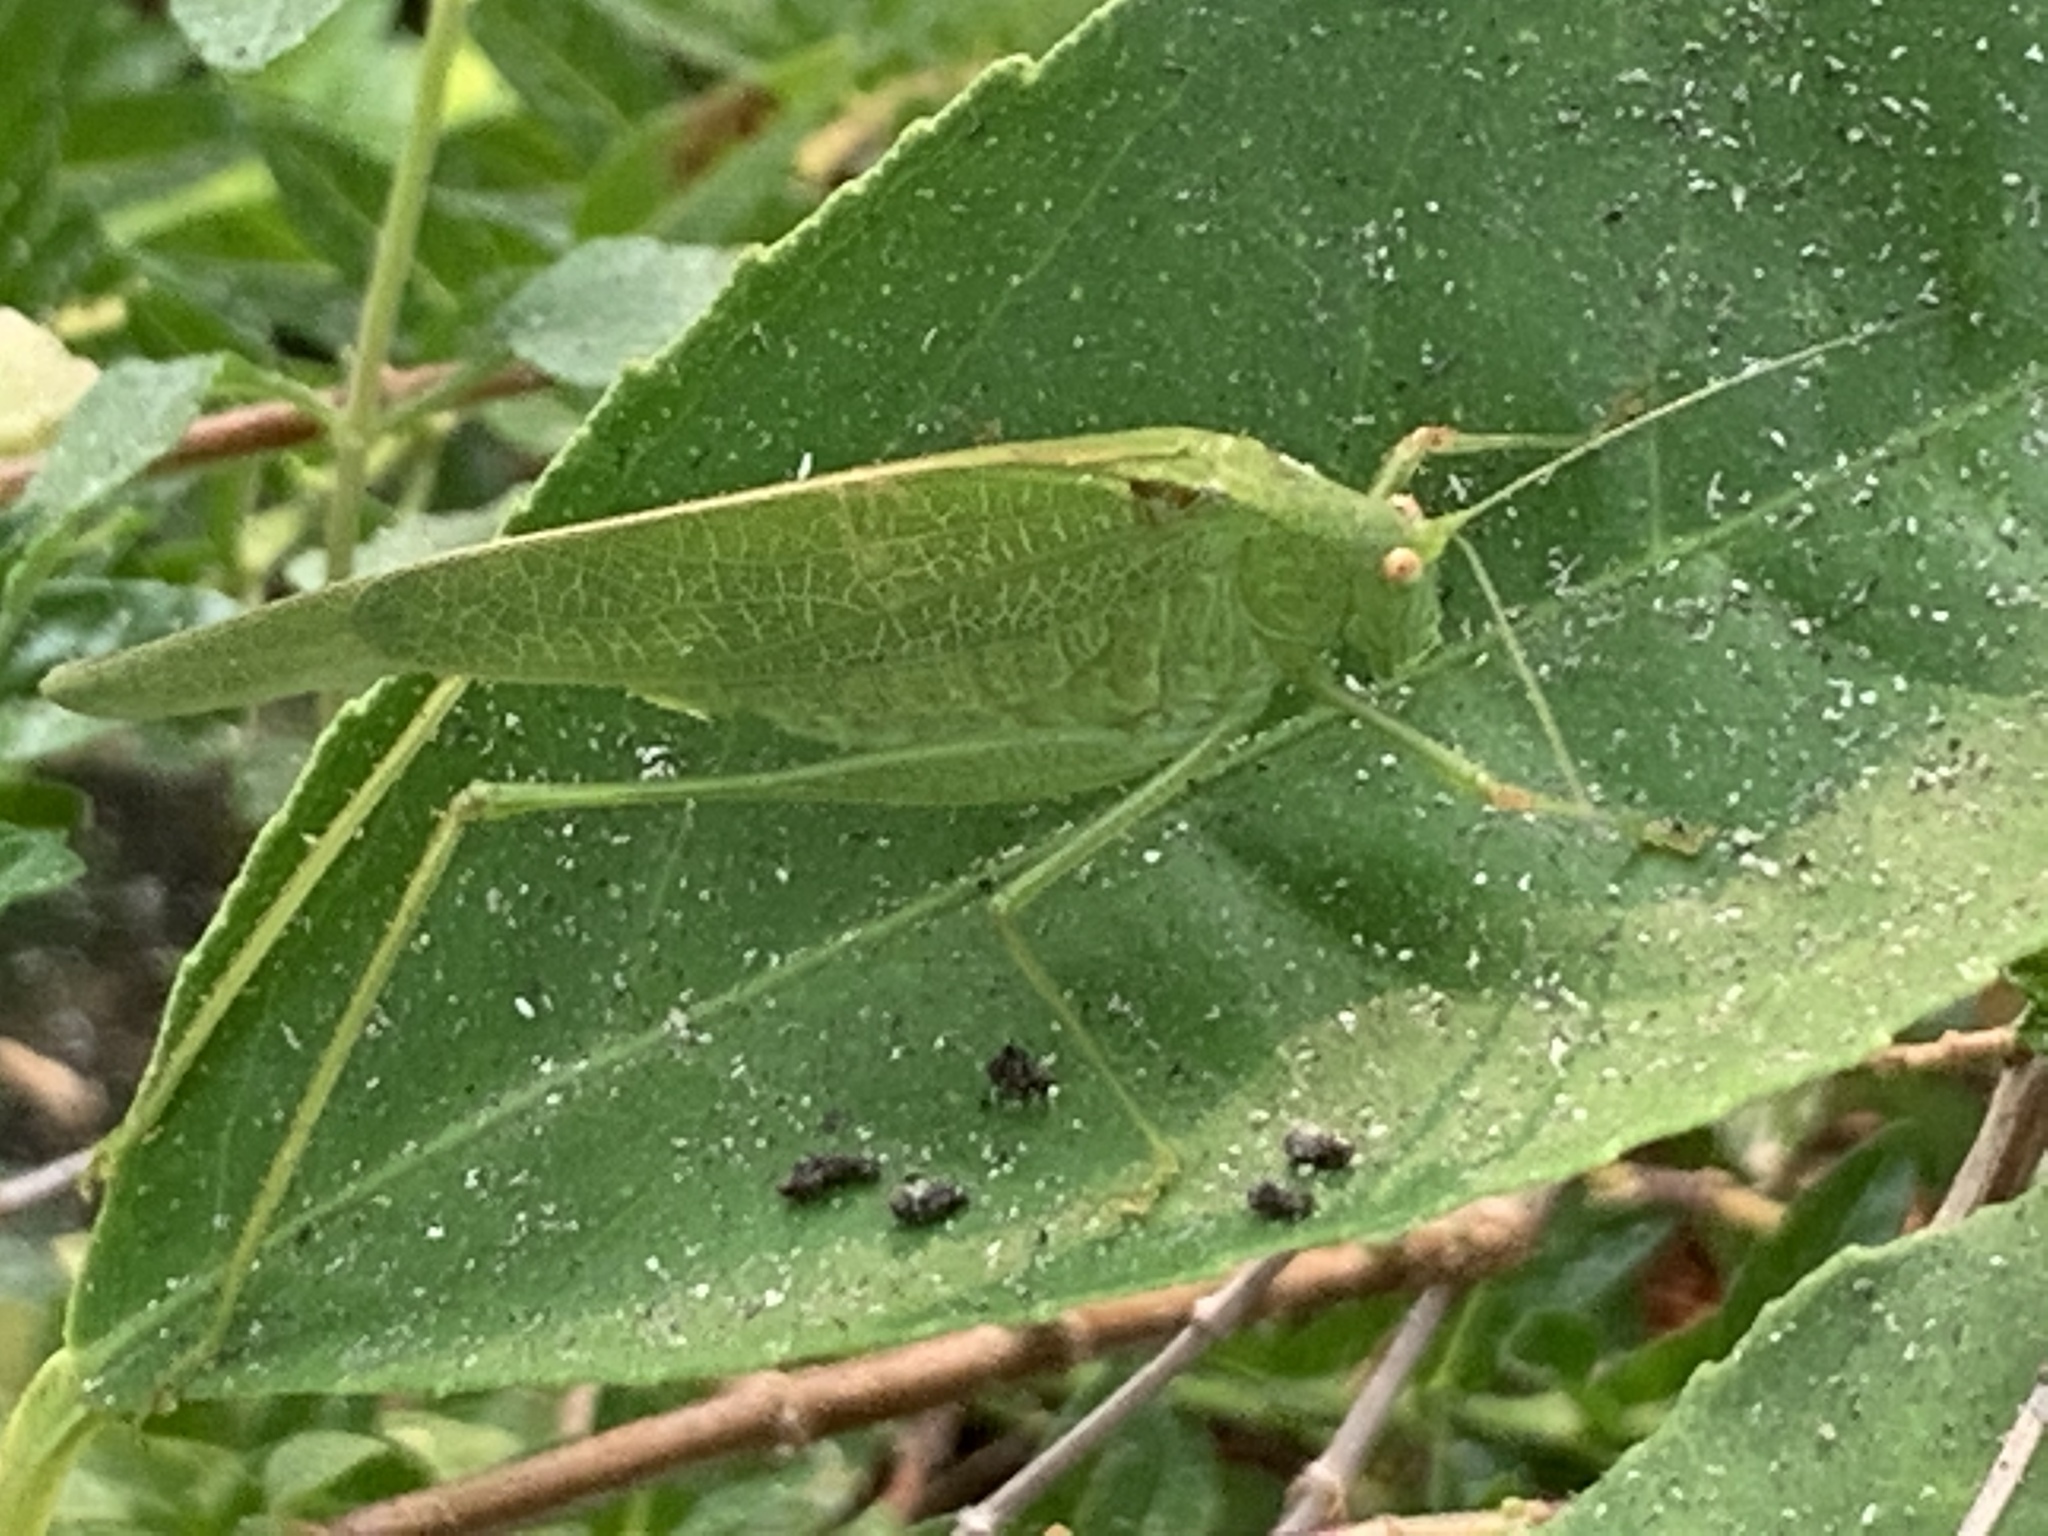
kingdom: Animalia
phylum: Arthropoda
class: Insecta
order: Orthoptera
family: Tettigoniidae
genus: Phaneroptera
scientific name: Phaneroptera nana
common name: Southern sickle bush-cricket
